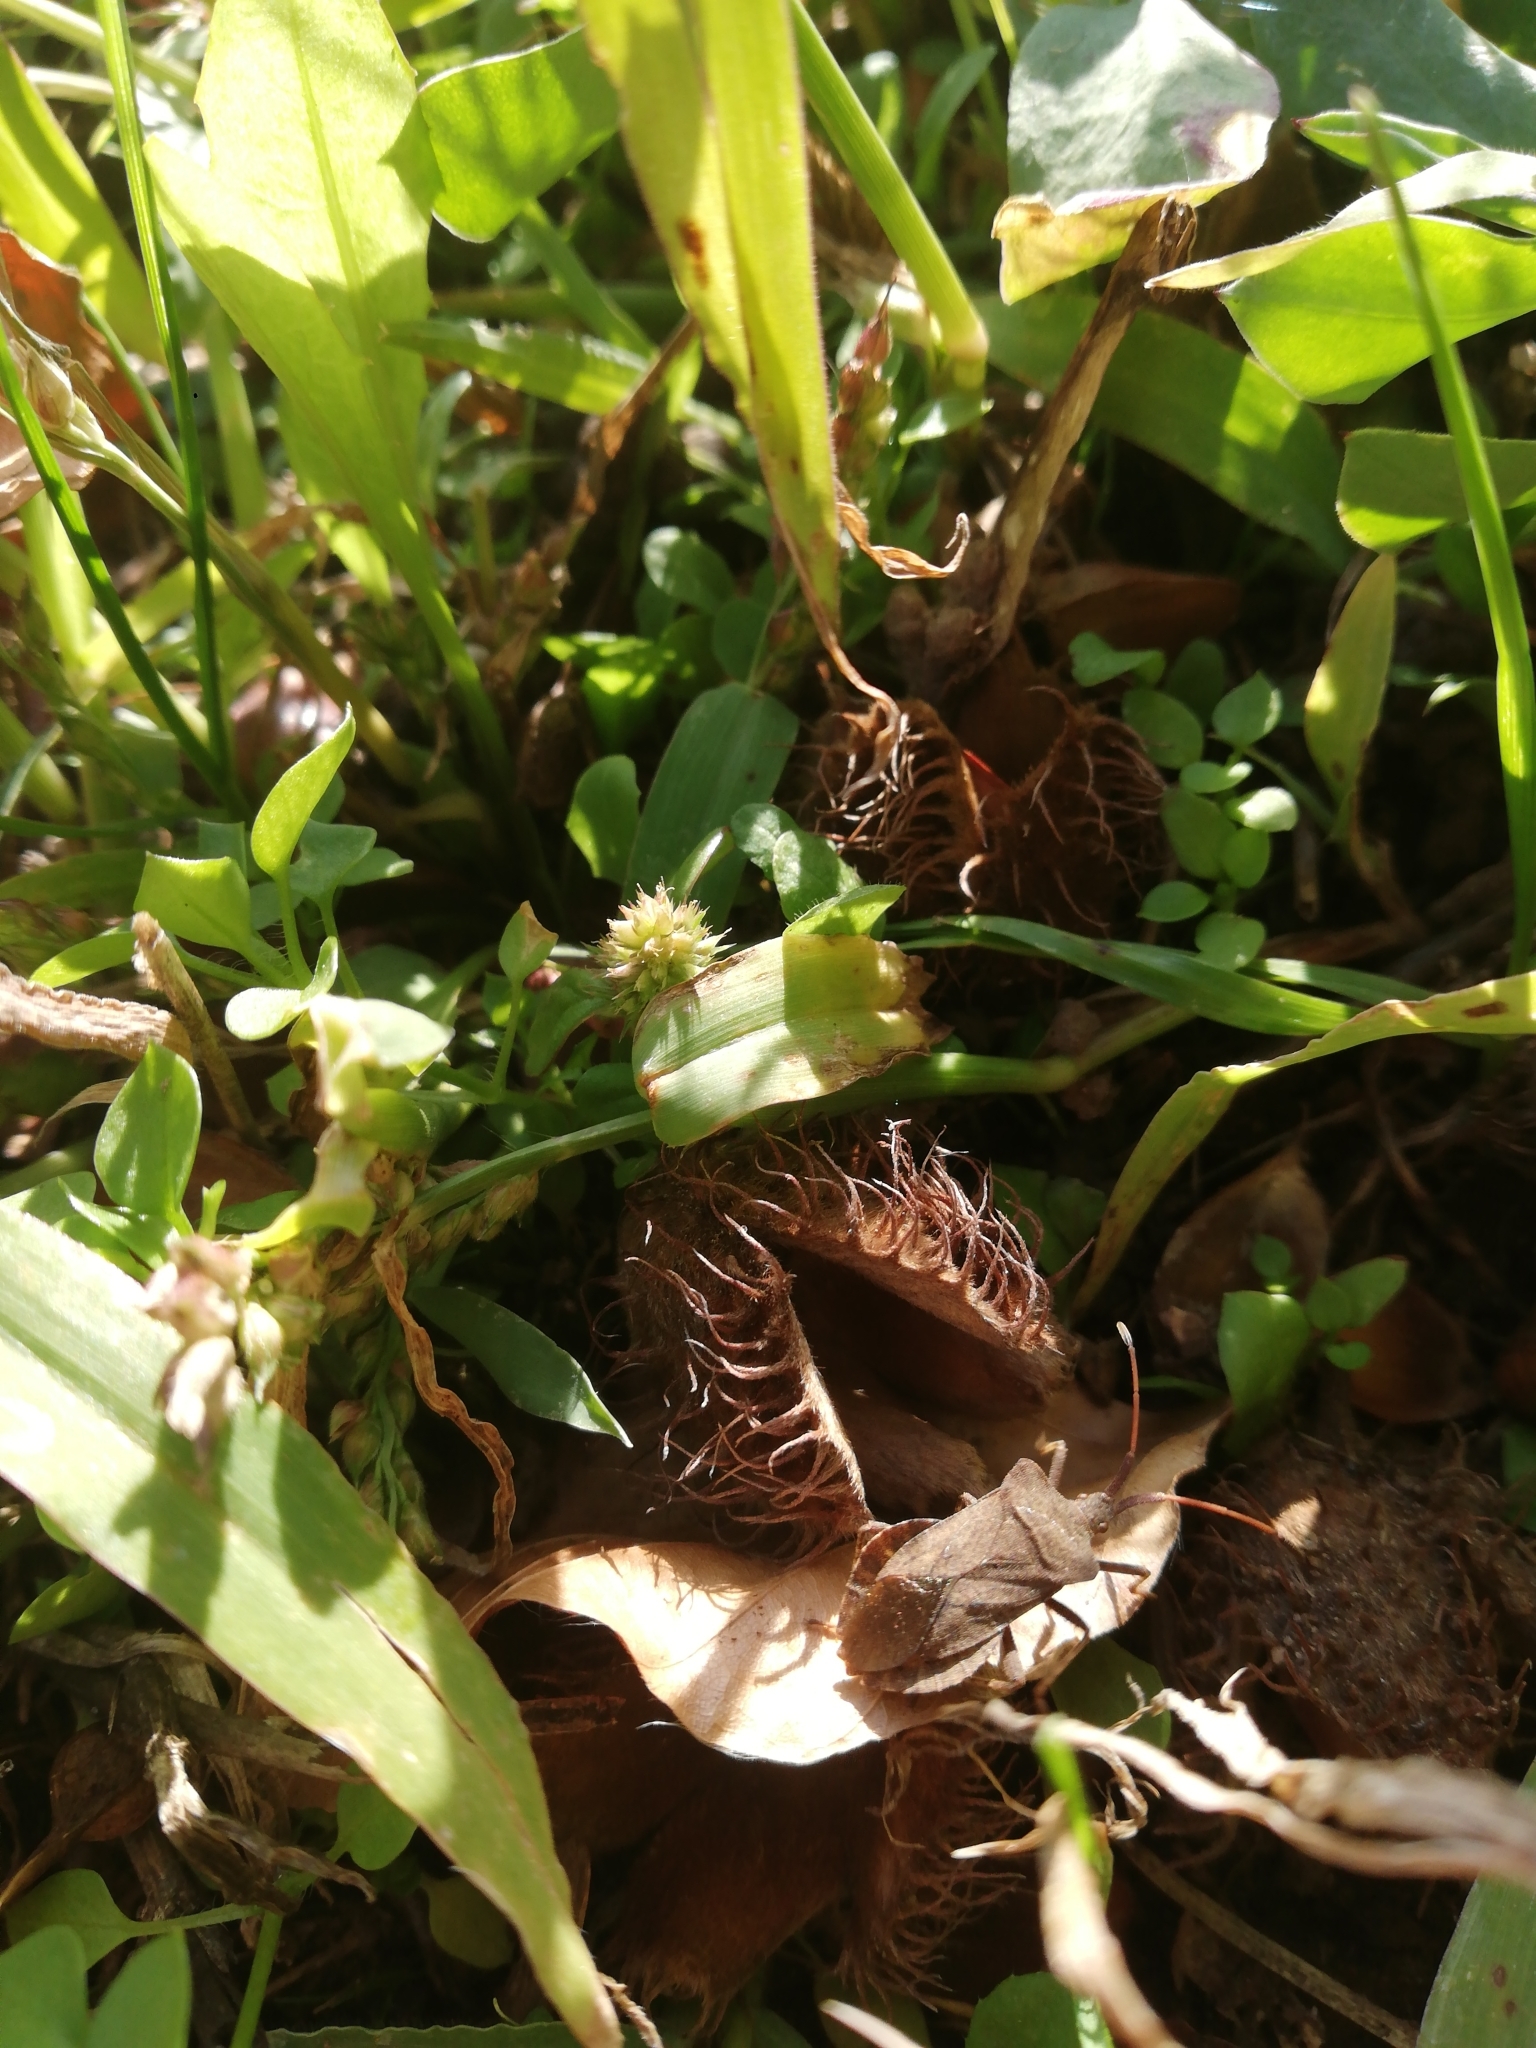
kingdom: Plantae
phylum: Tracheophyta
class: Magnoliopsida
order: Fagales
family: Fagaceae
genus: Fagus
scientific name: Fagus sylvatica
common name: Beech
